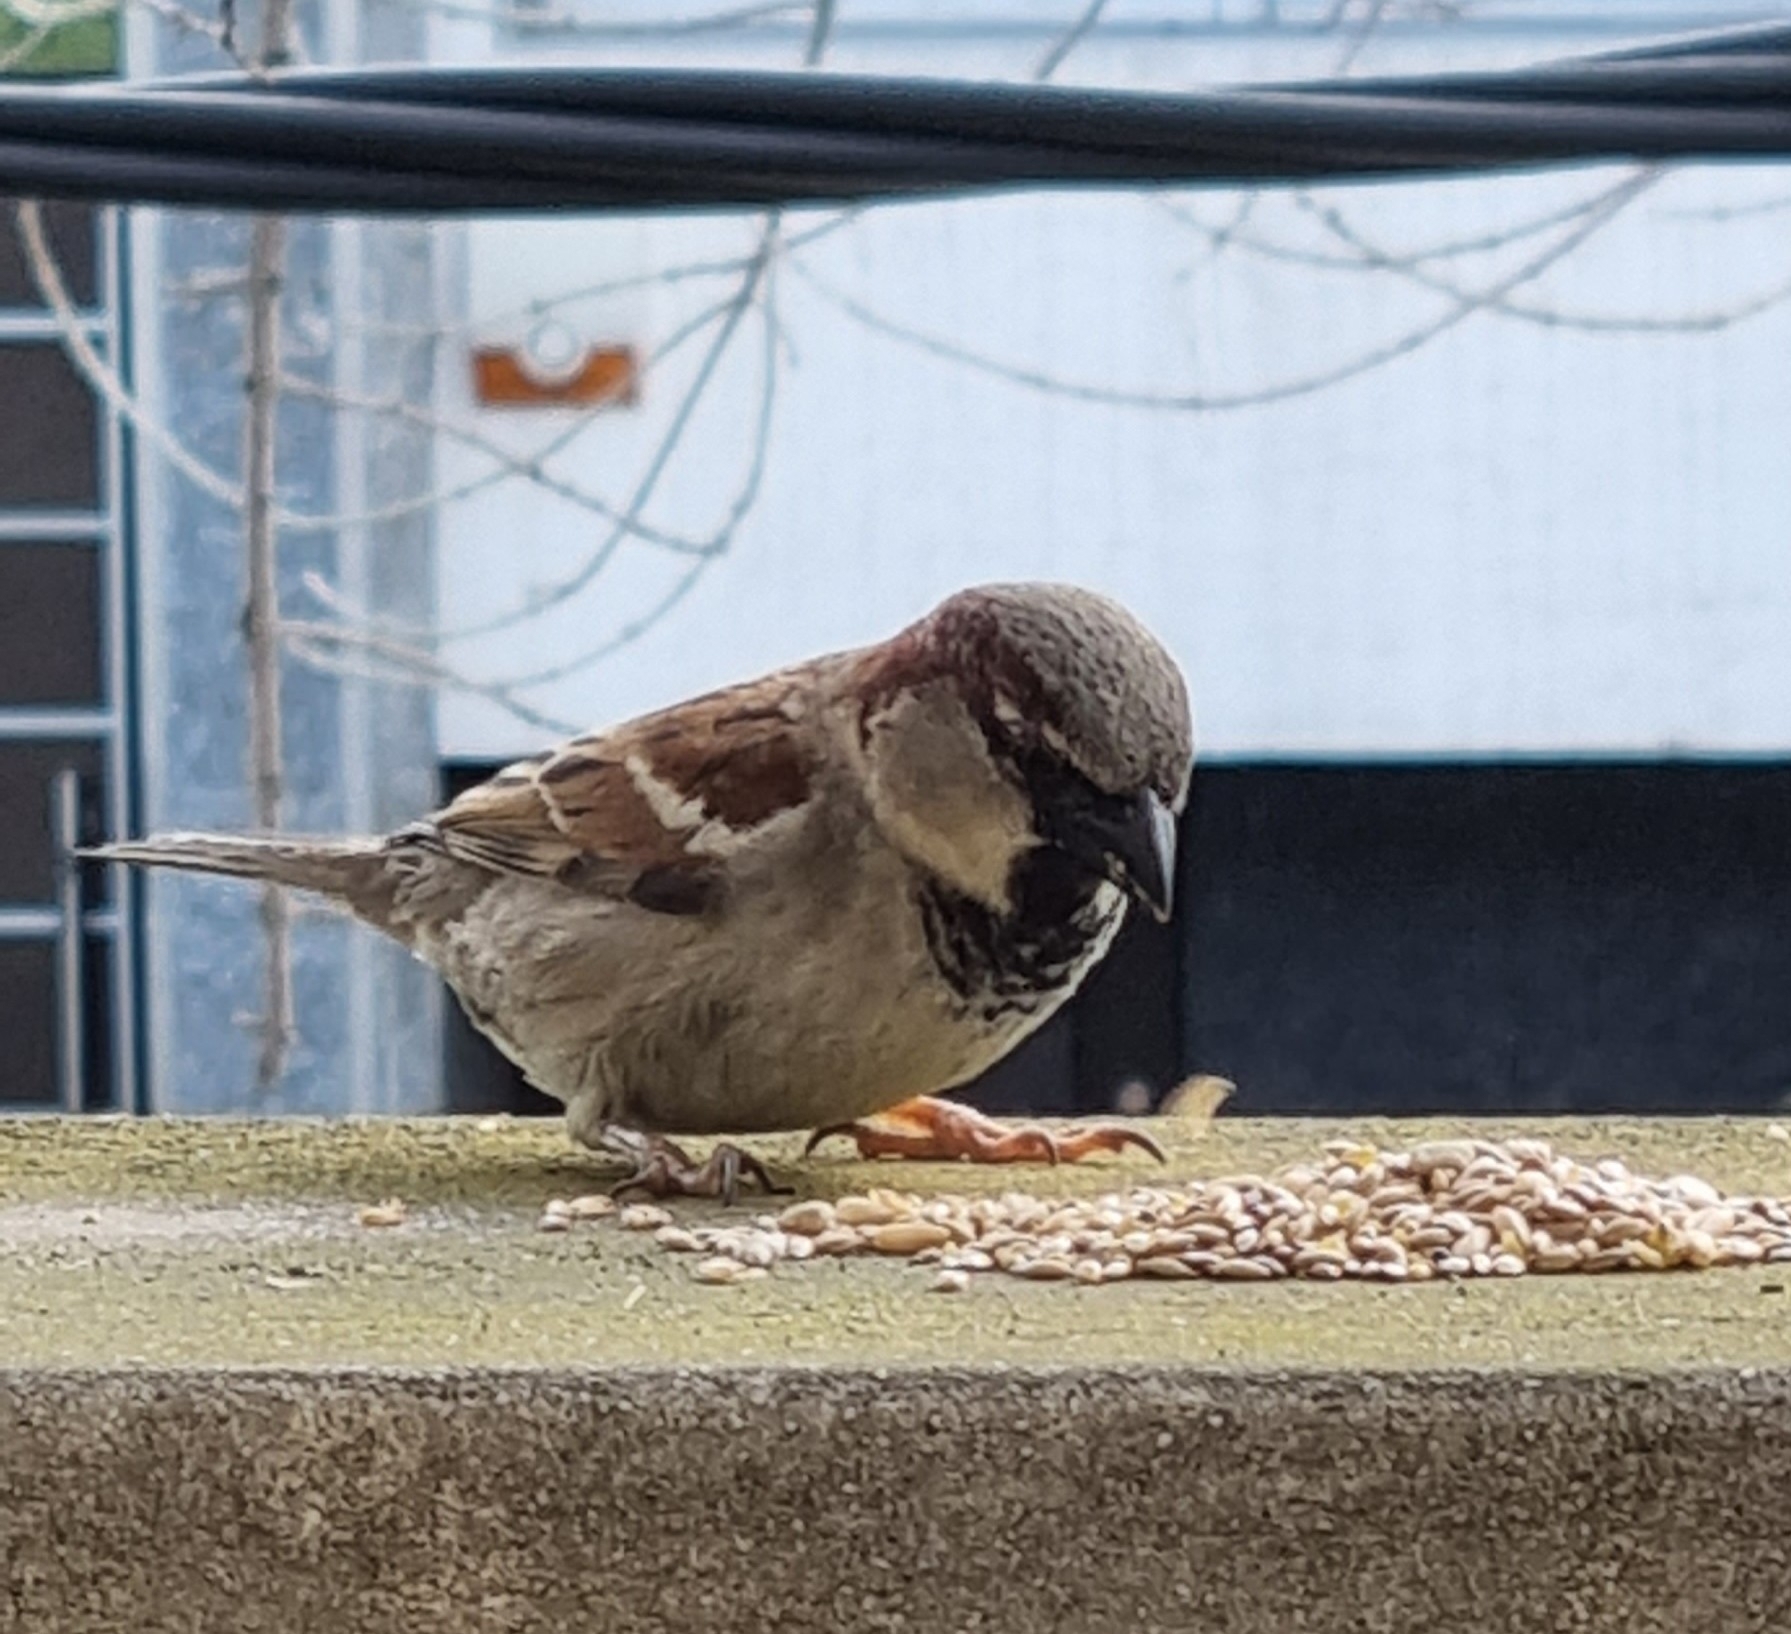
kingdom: Animalia
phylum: Chordata
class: Aves
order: Passeriformes
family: Passeridae
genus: Passer
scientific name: Passer domesticus
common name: House sparrow
